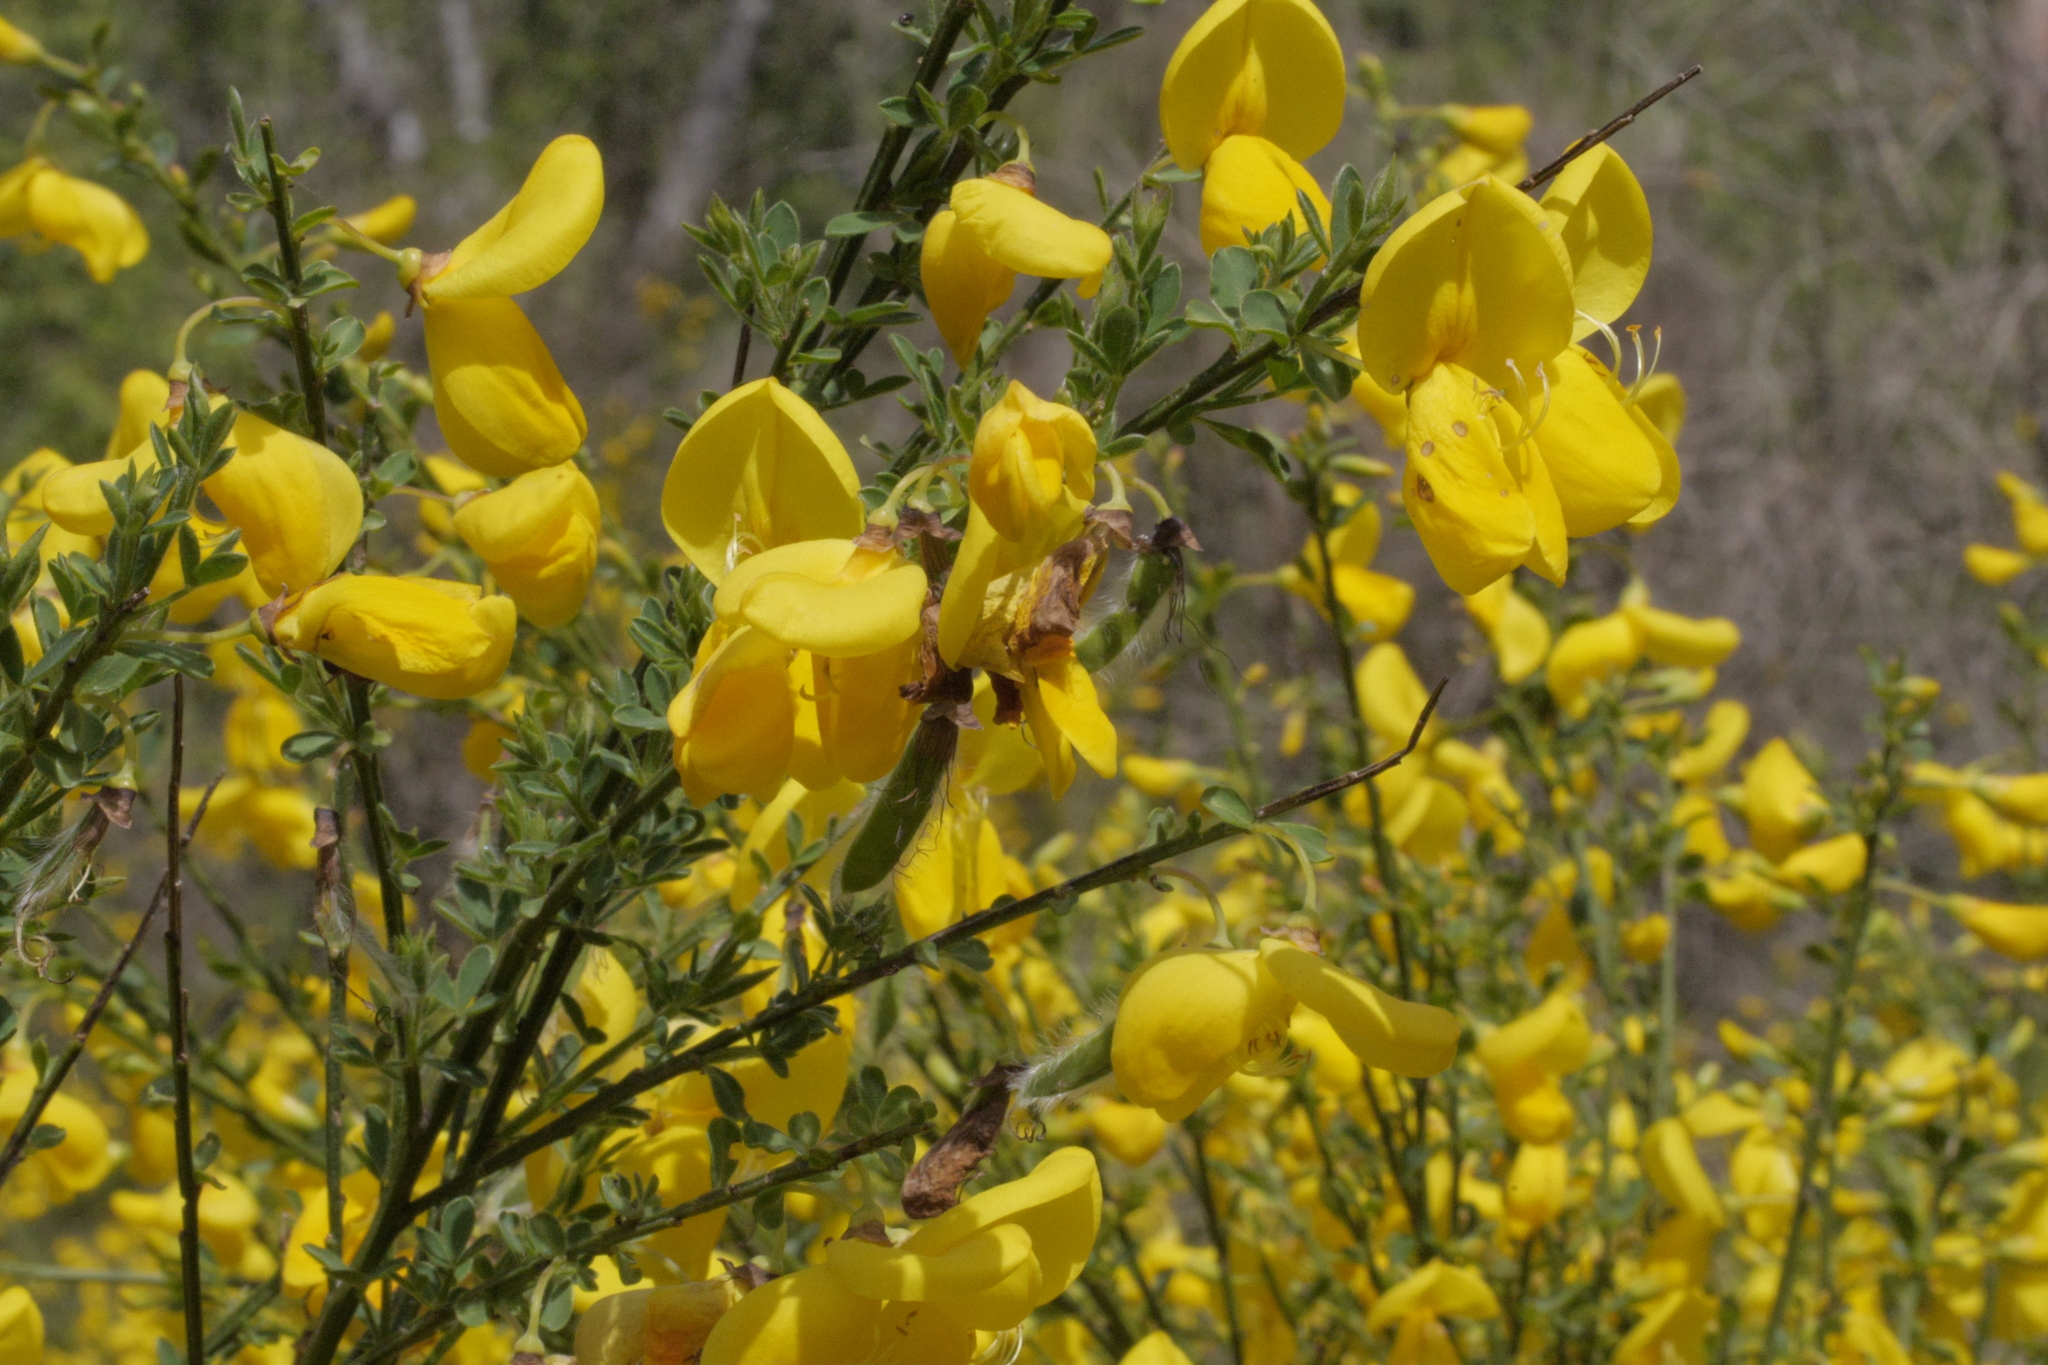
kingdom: Plantae
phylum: Tracheophyta
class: Magnoliopsida
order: Fabales
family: Fabaceae
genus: Cytisus
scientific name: Cytisus scoparius
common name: Scotch broom
